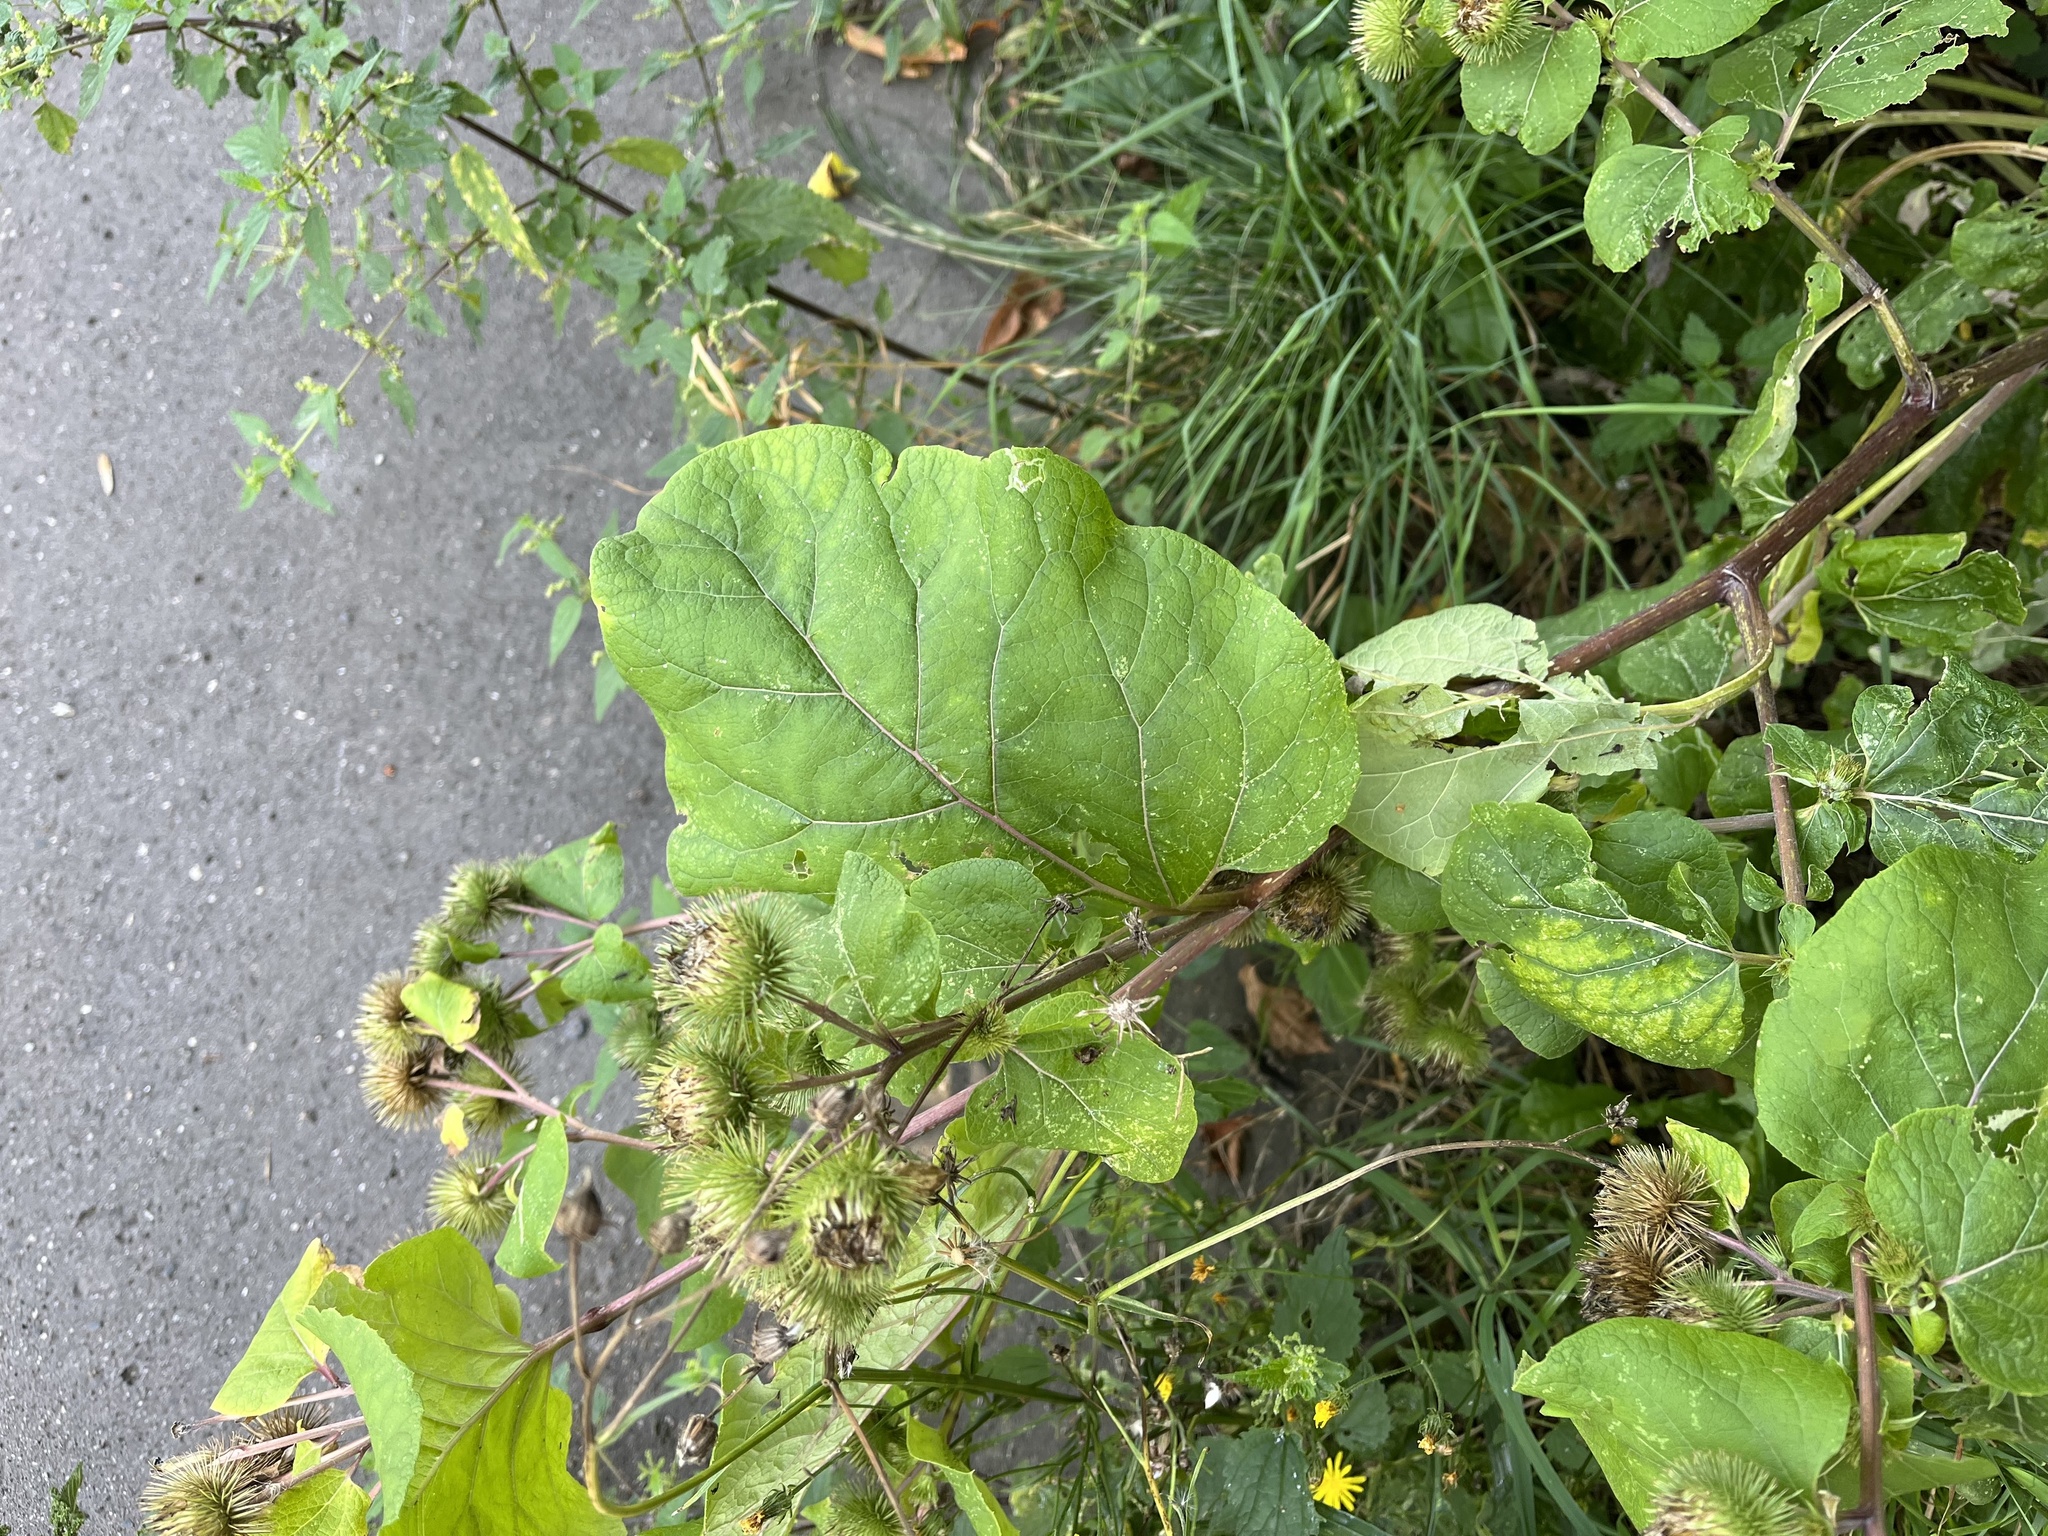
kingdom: Plantae
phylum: Tracheophyta
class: Magnoliopsida
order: Asterales
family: Asteraceae
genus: Arctium
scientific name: Arctium lappa
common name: Greater burdock
